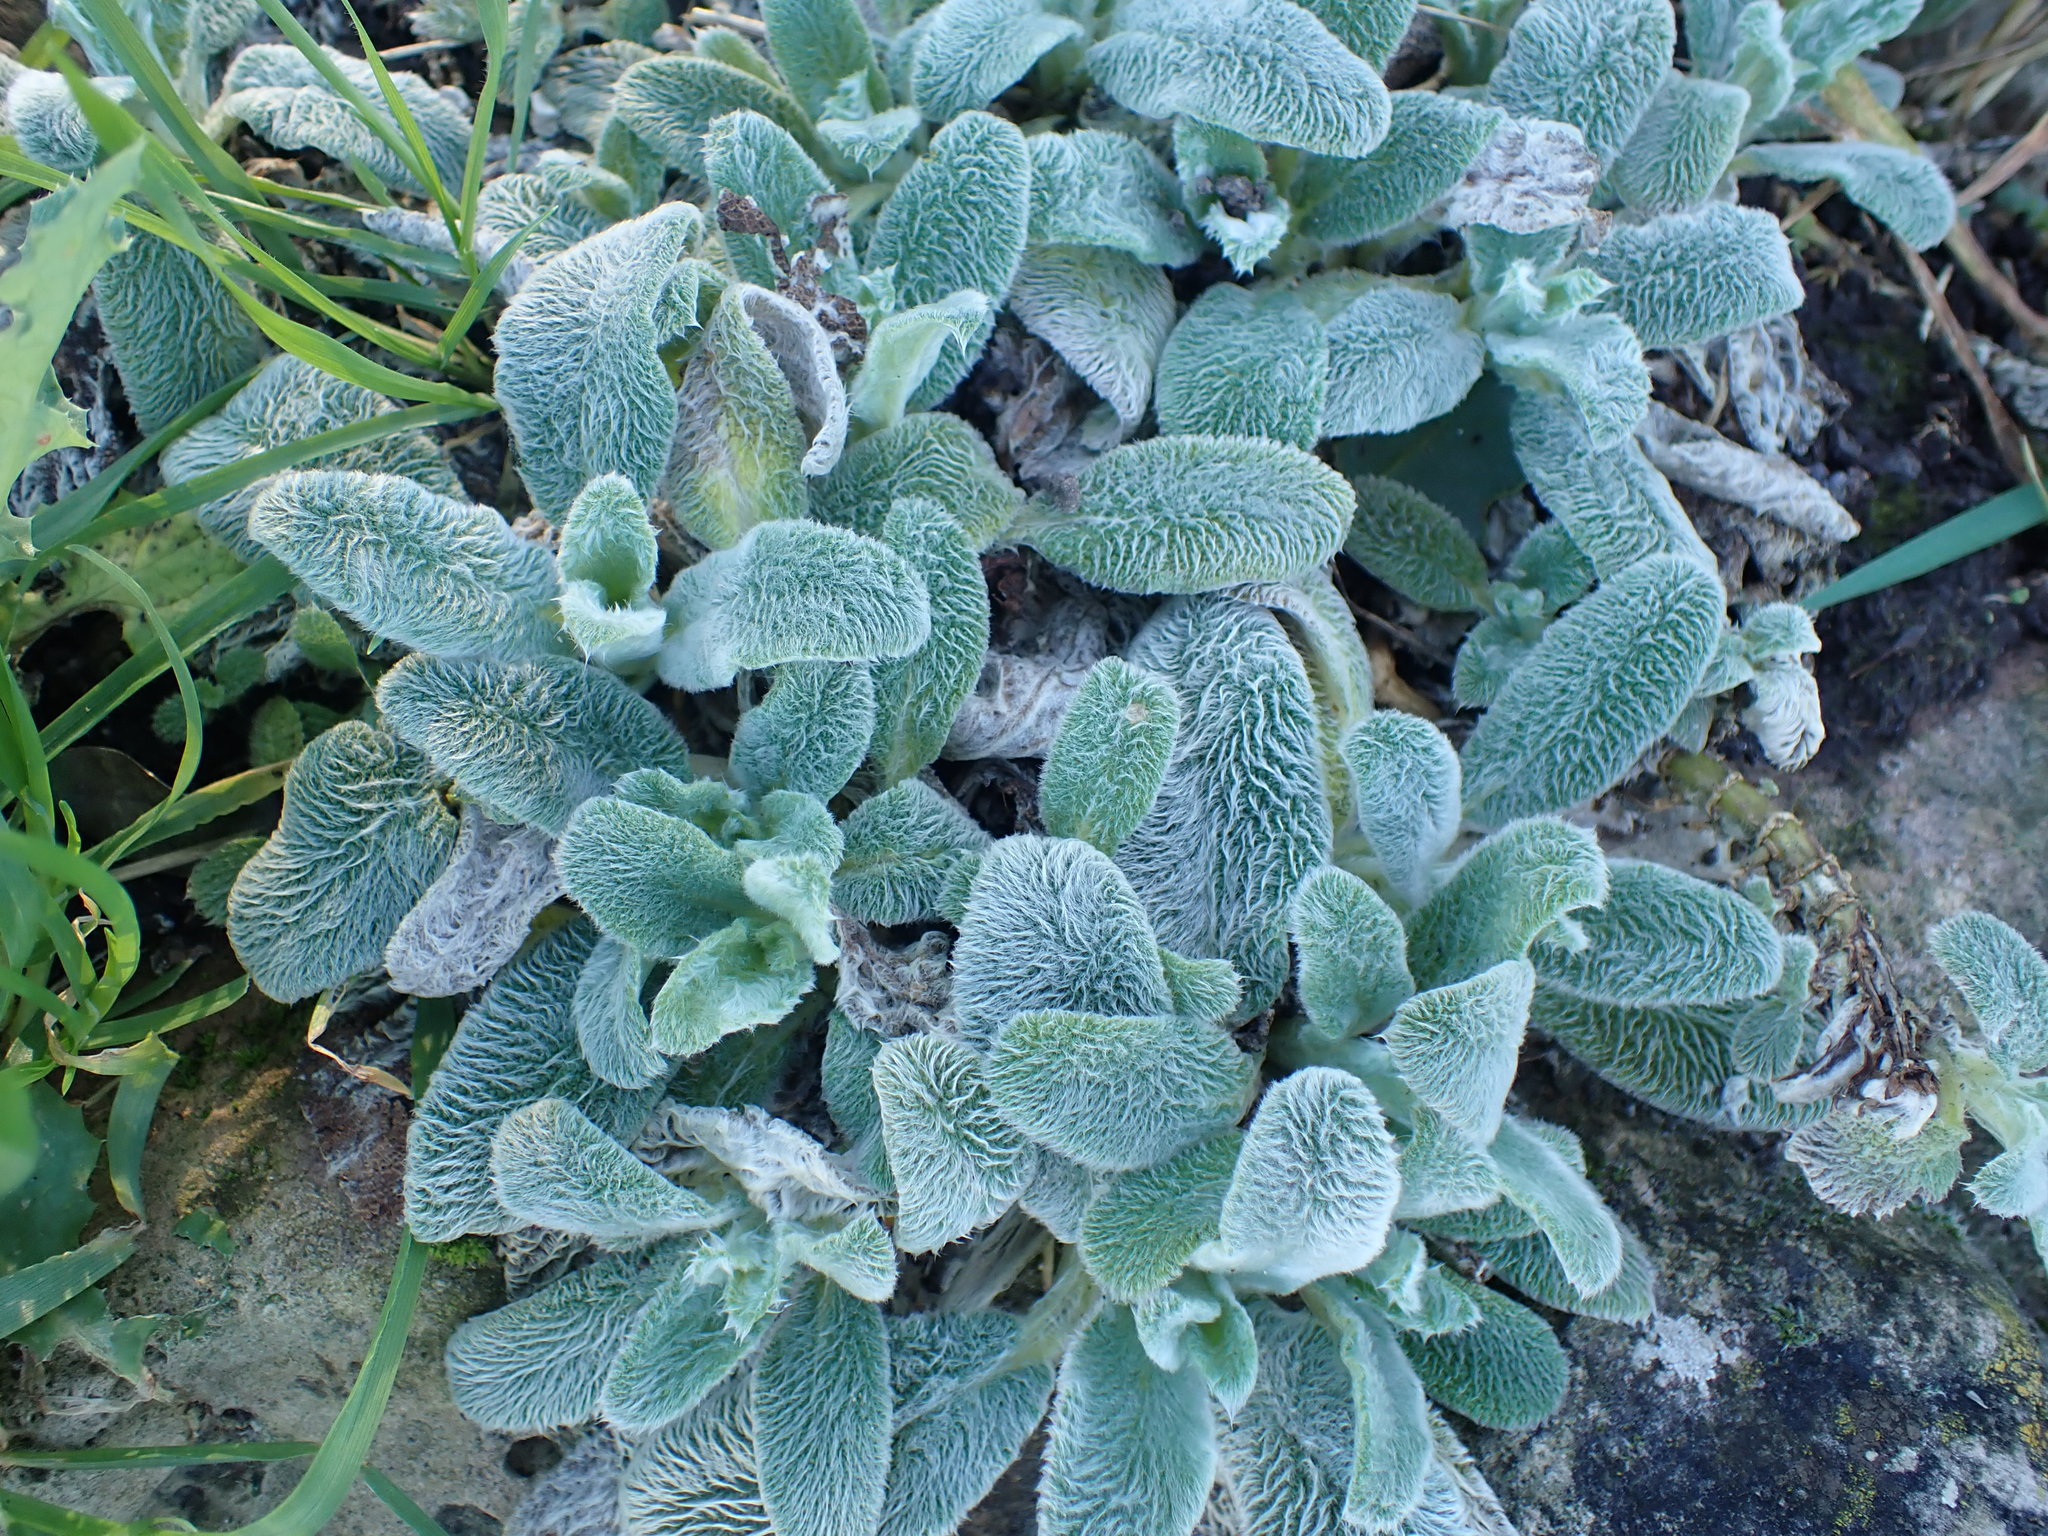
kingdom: Plantae
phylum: Tracheophyta
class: Magnoliopsida
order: Lamiales
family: Lamiaceae
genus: Stachys
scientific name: Stachys byzantina
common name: Lamb's-ear
